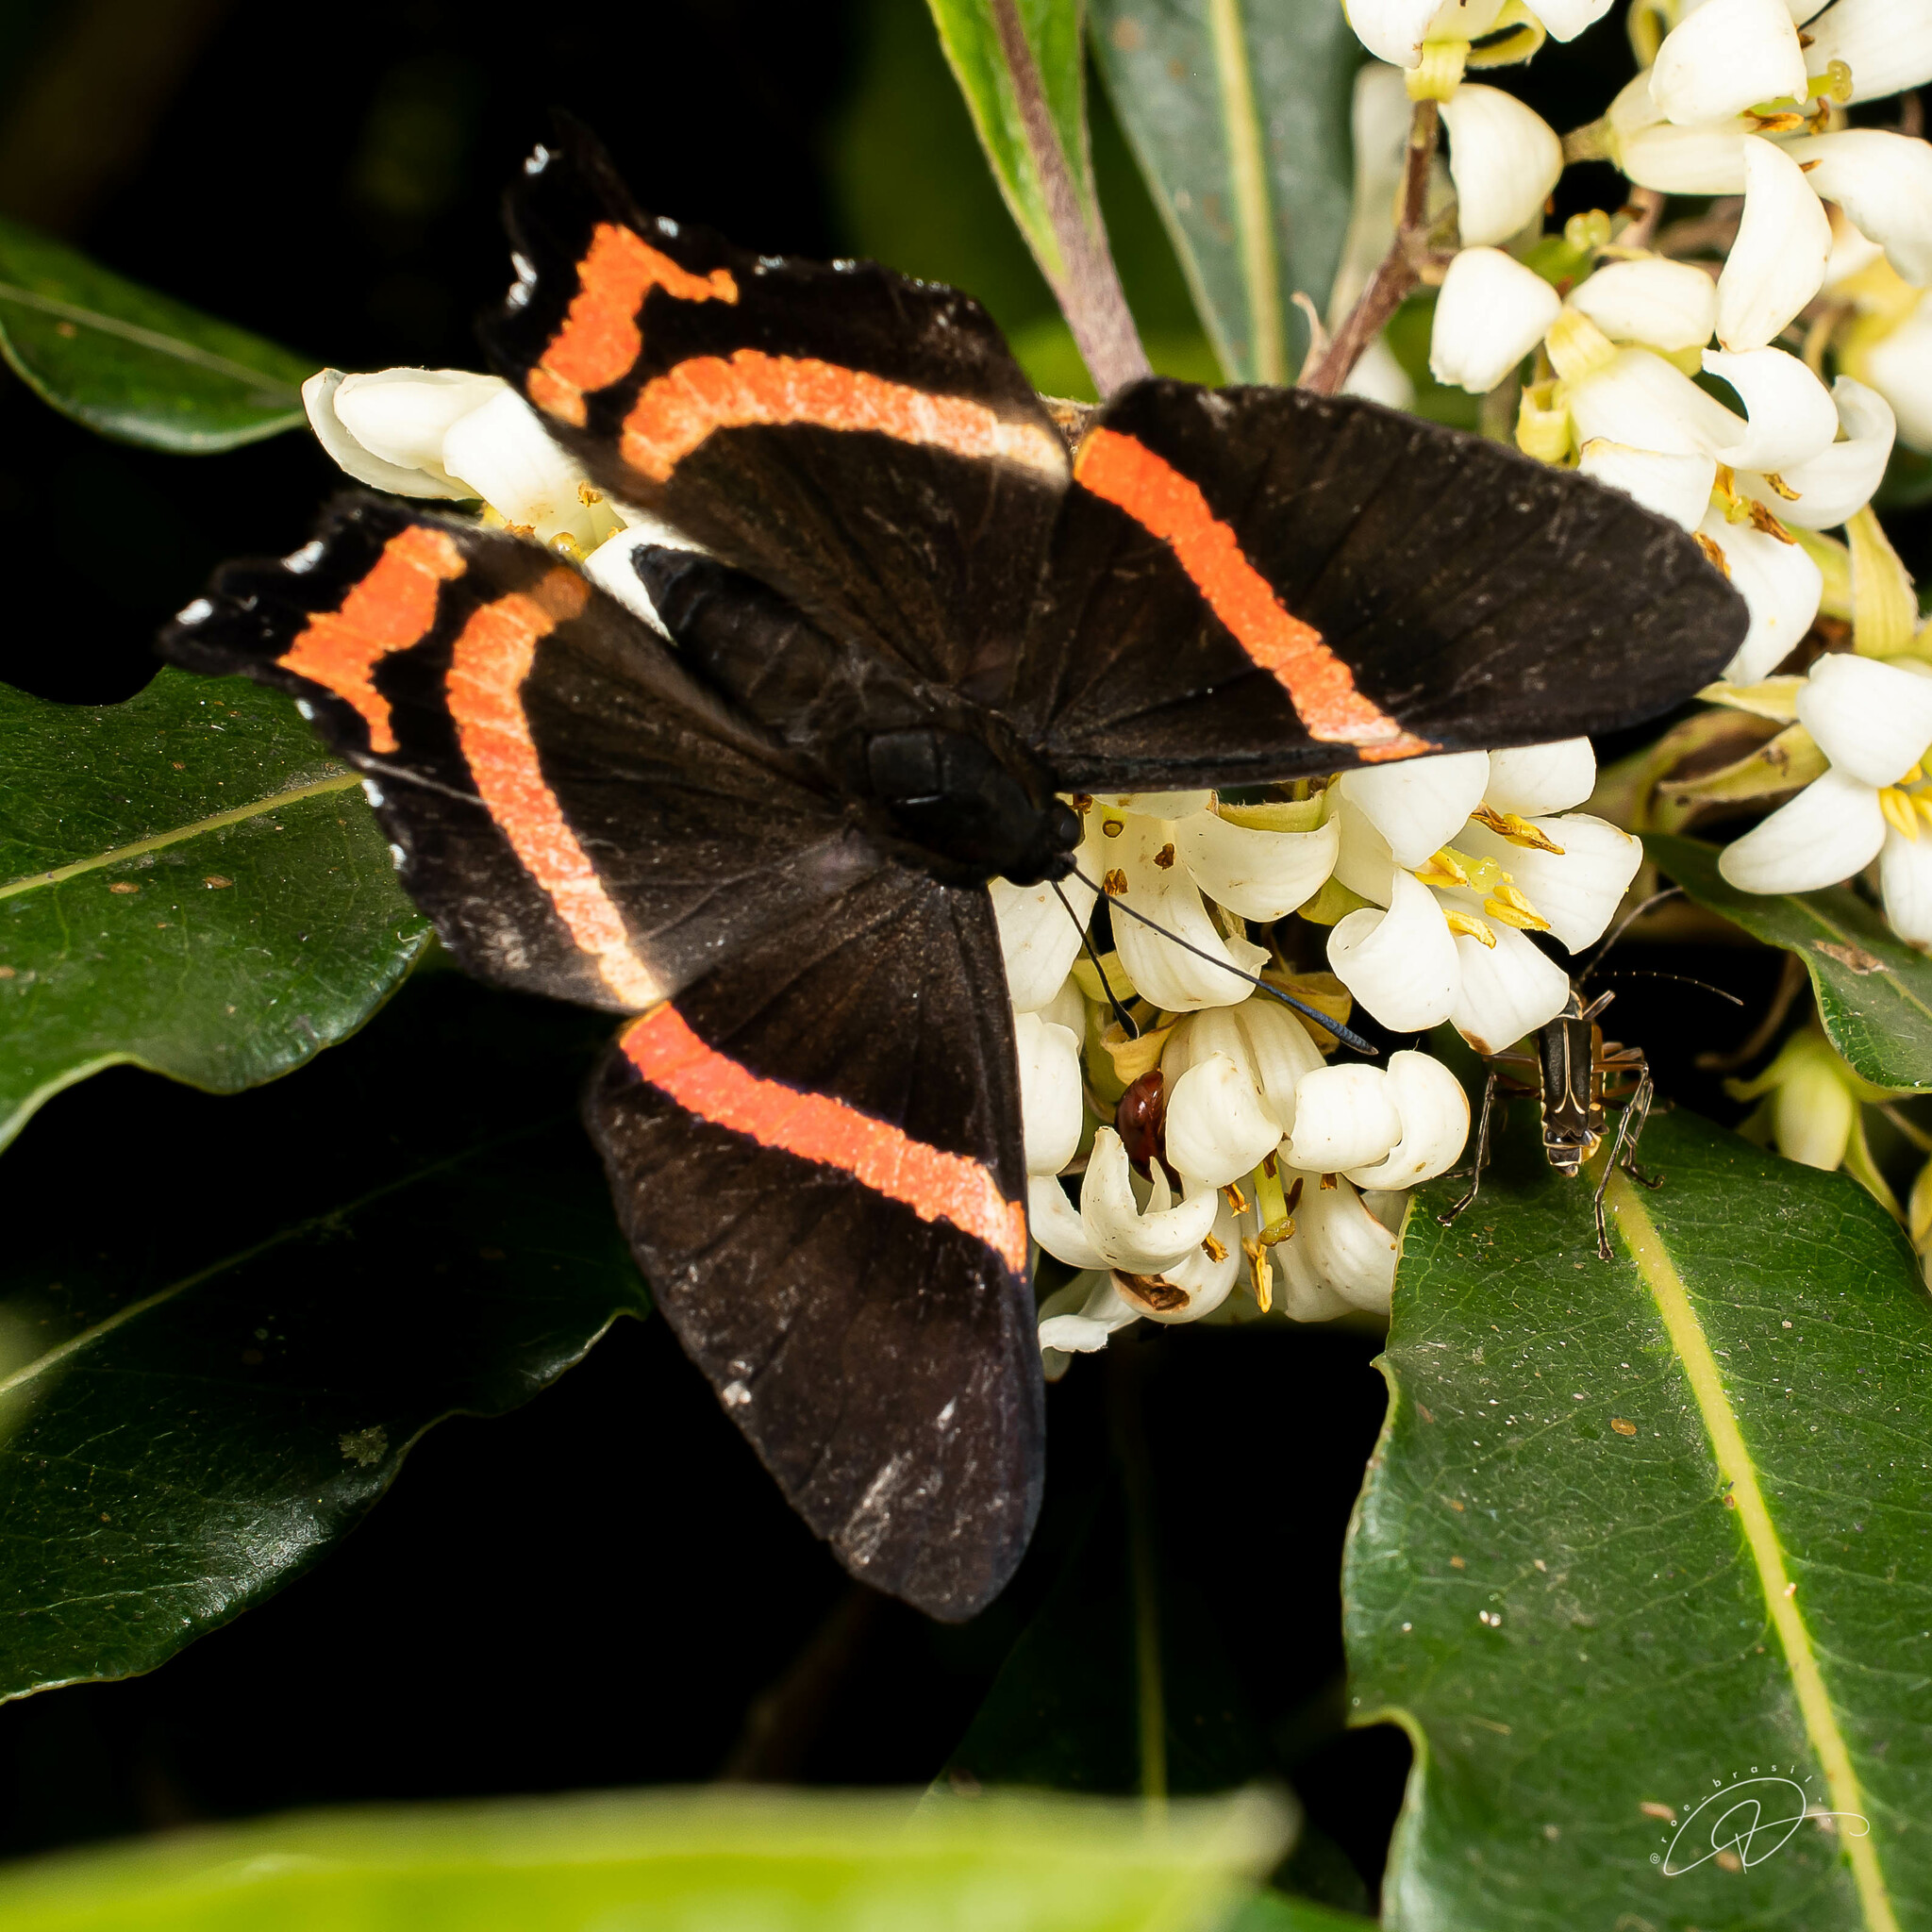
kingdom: Animalia
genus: Ancyluris
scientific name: Ancyluris aulestes
